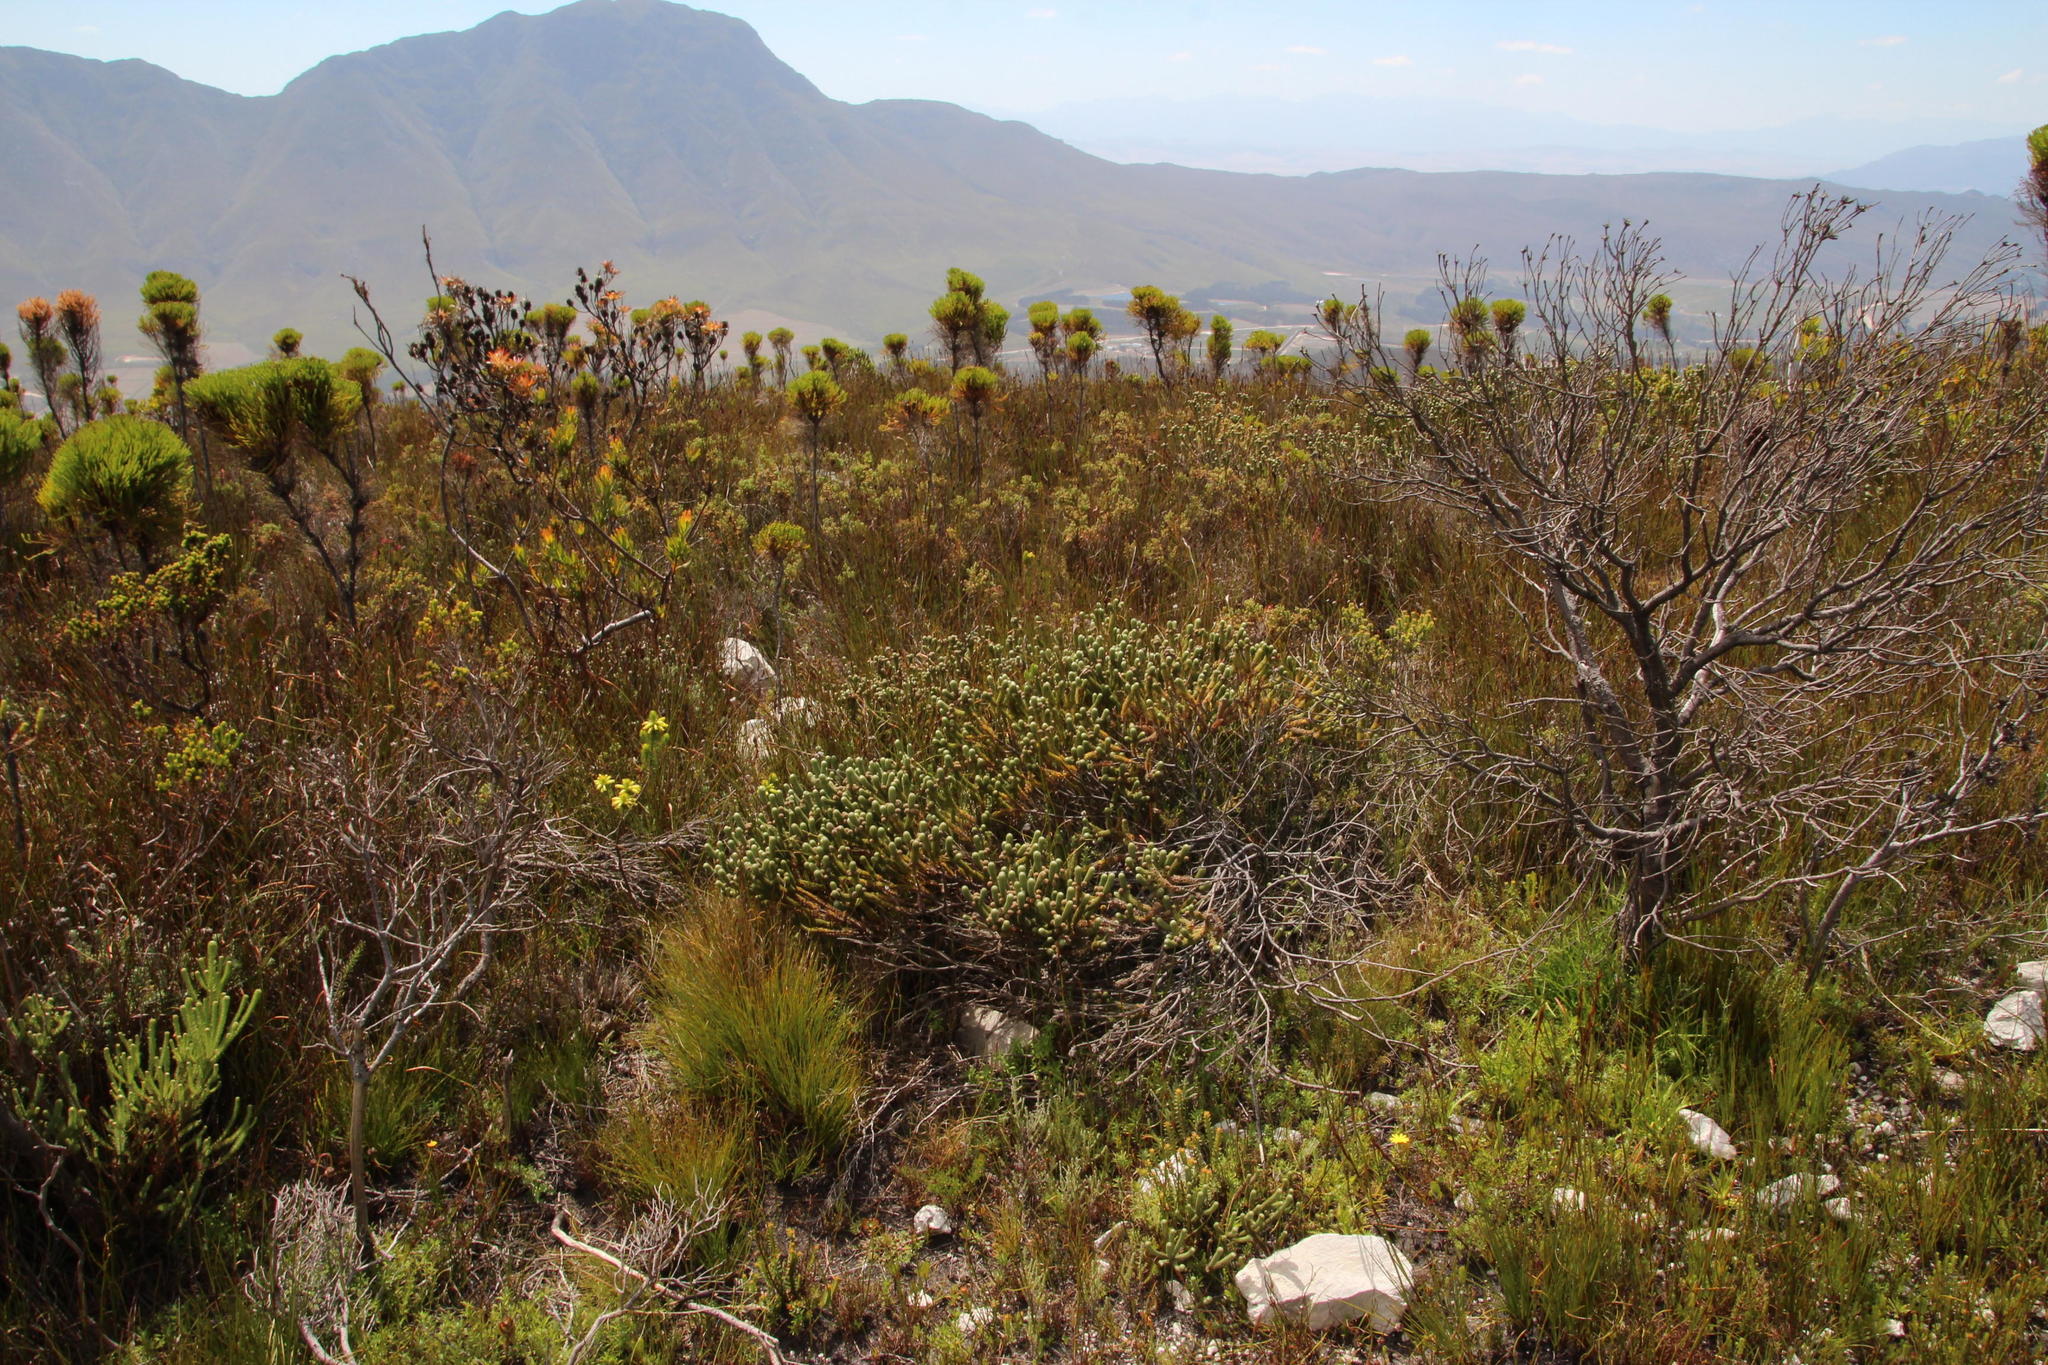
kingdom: Plantae
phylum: Tracheophyta
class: Magnoliopsida
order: Bruniales
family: Bruniaceae
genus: Berzelia
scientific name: Berzelia incurva
